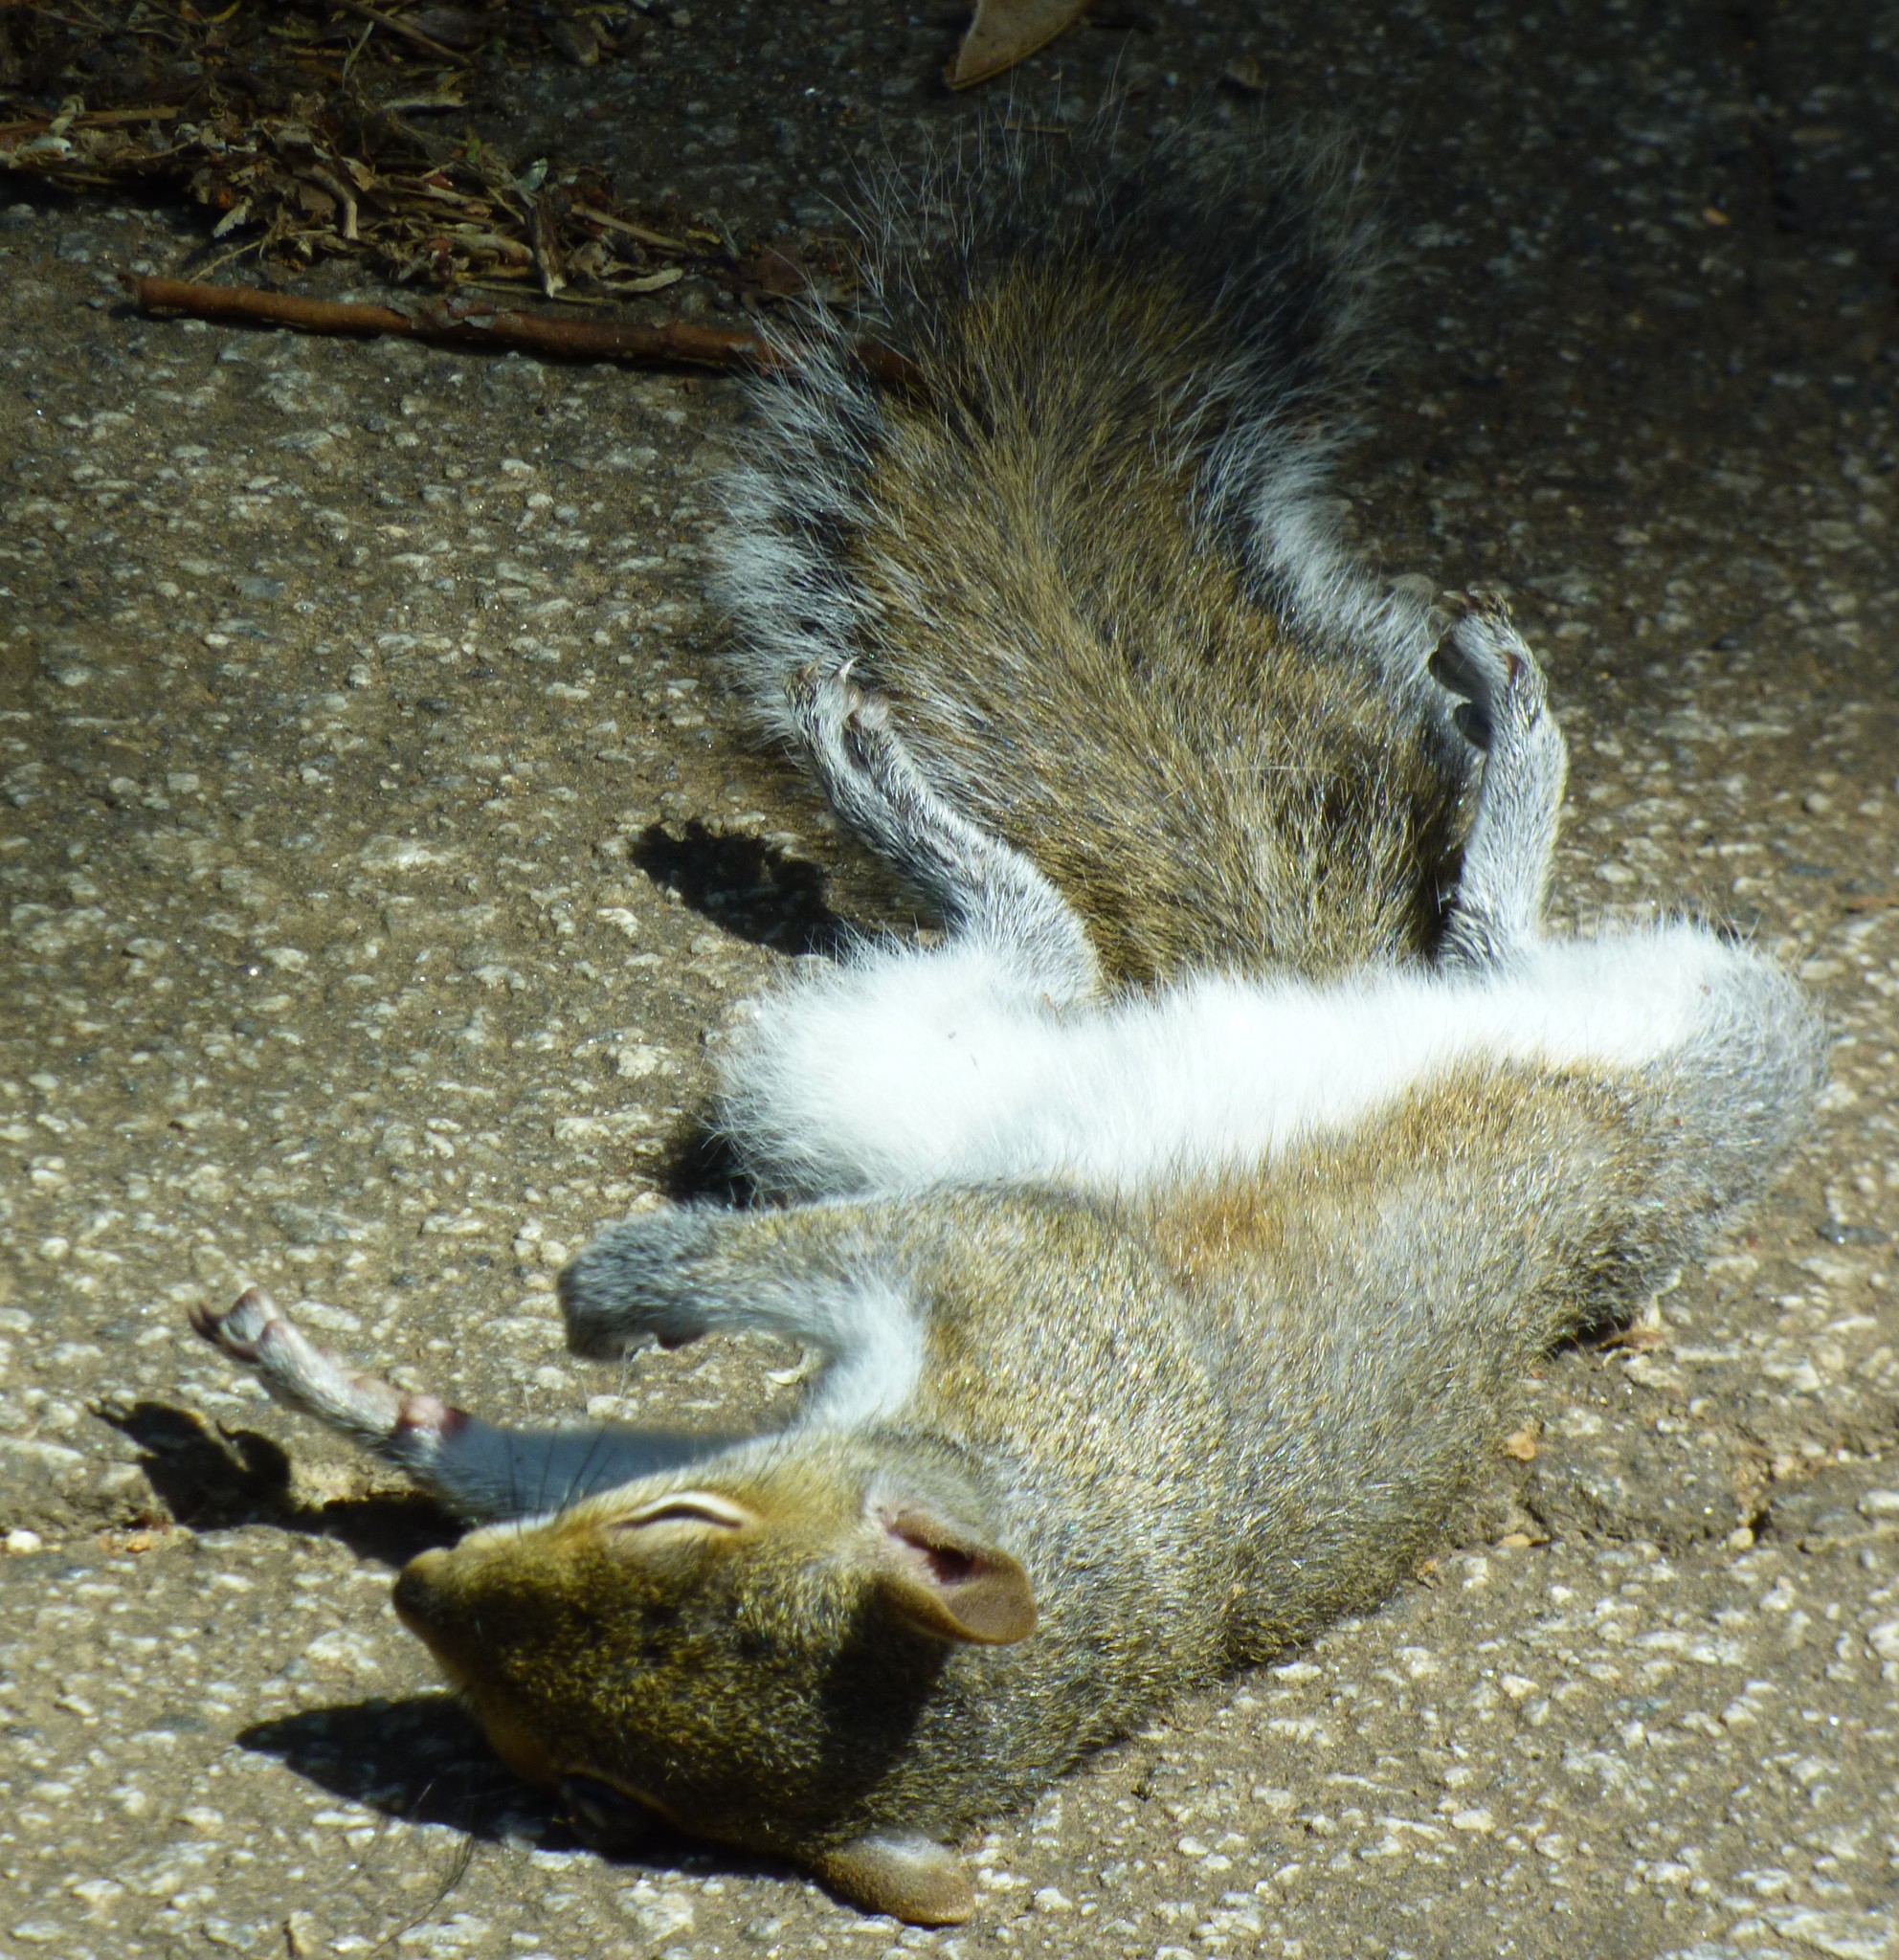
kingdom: Animalia
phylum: Chordata
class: Mammalia
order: Rodentia
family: Sciuridae
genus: Sciurus
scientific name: Sciurus carolinensis
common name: Eastern gray squirrel
